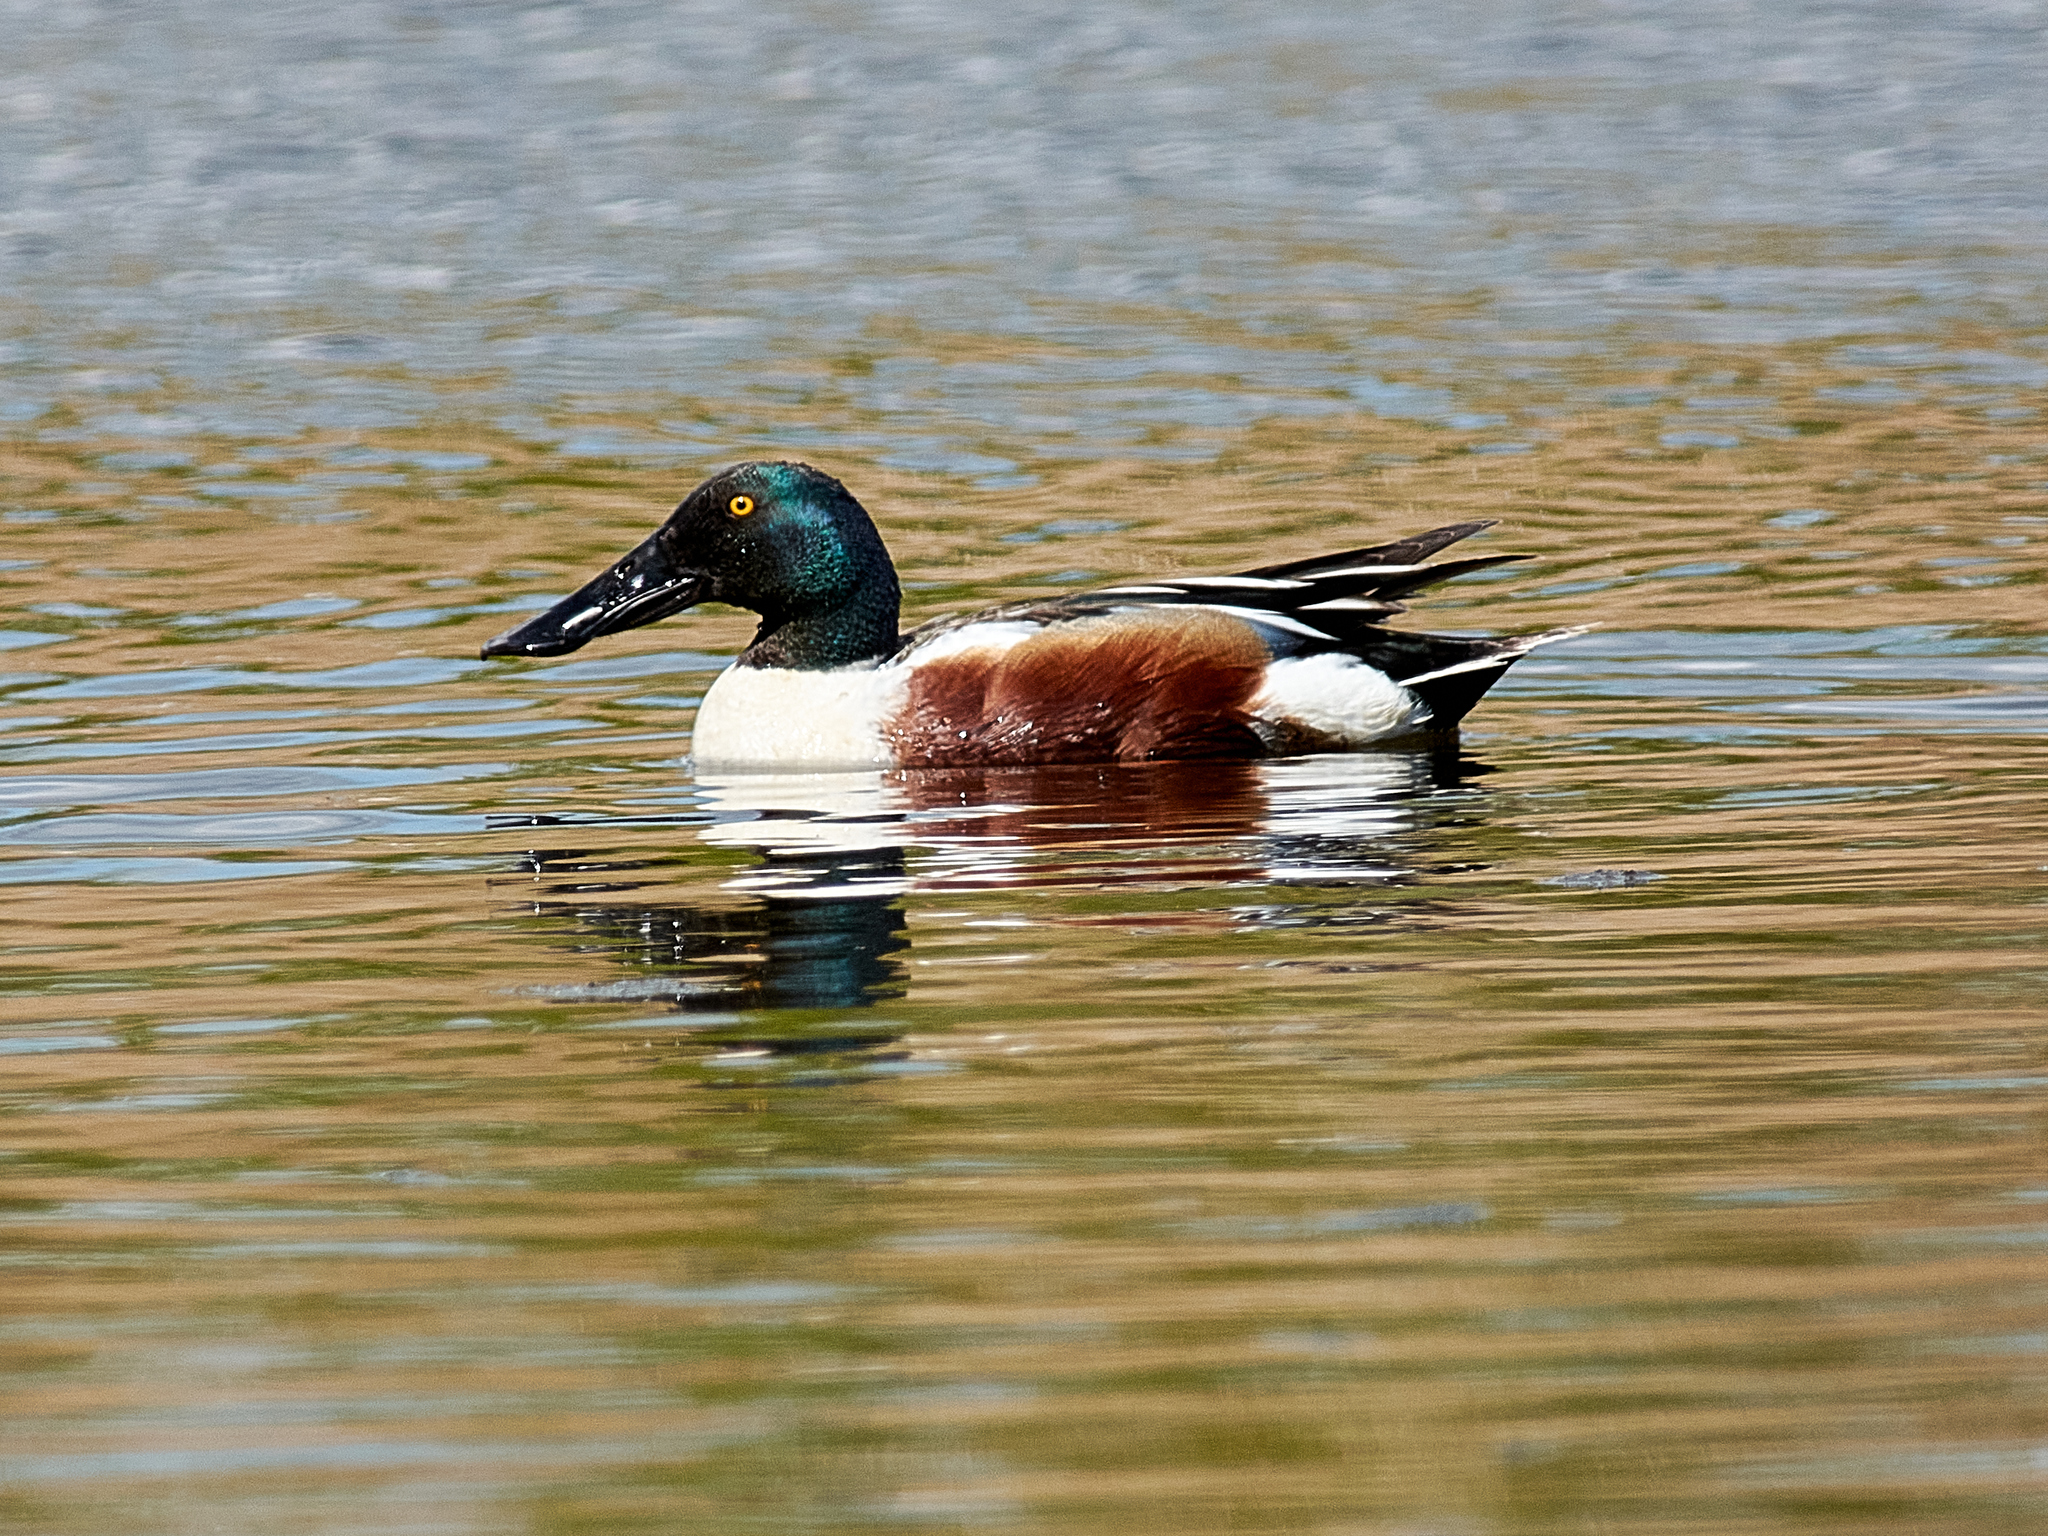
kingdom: Animalia
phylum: Chordata
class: Aves
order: Anseriformes
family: Anatidae
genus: Spatula
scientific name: Spatula clypeata
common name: Northern shoveler
